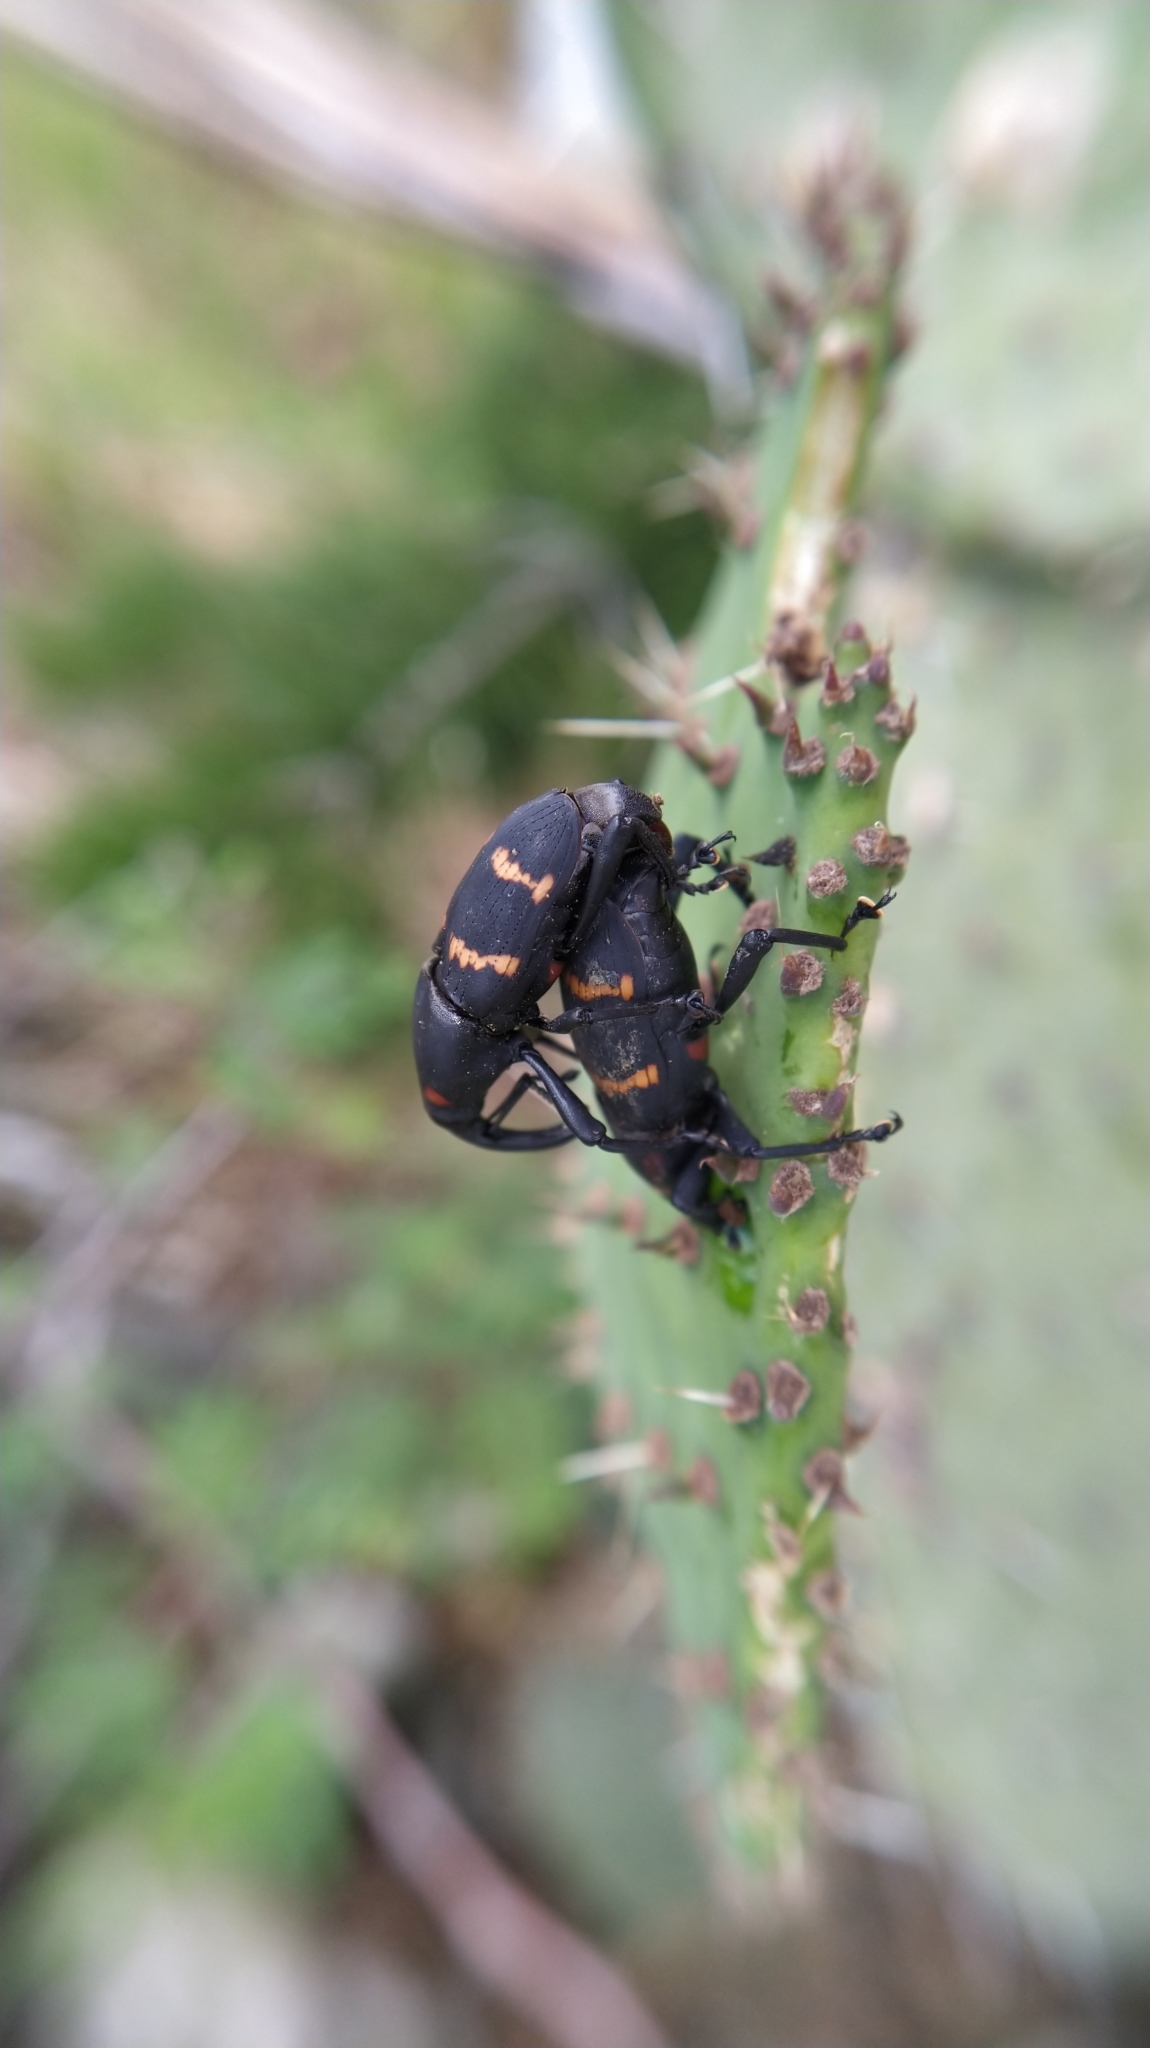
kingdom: Animalia
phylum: Arthropoda
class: Insecta
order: Coleoptera
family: Dryophthoridae
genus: Cactophagus
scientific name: Cactophagus spinolae
